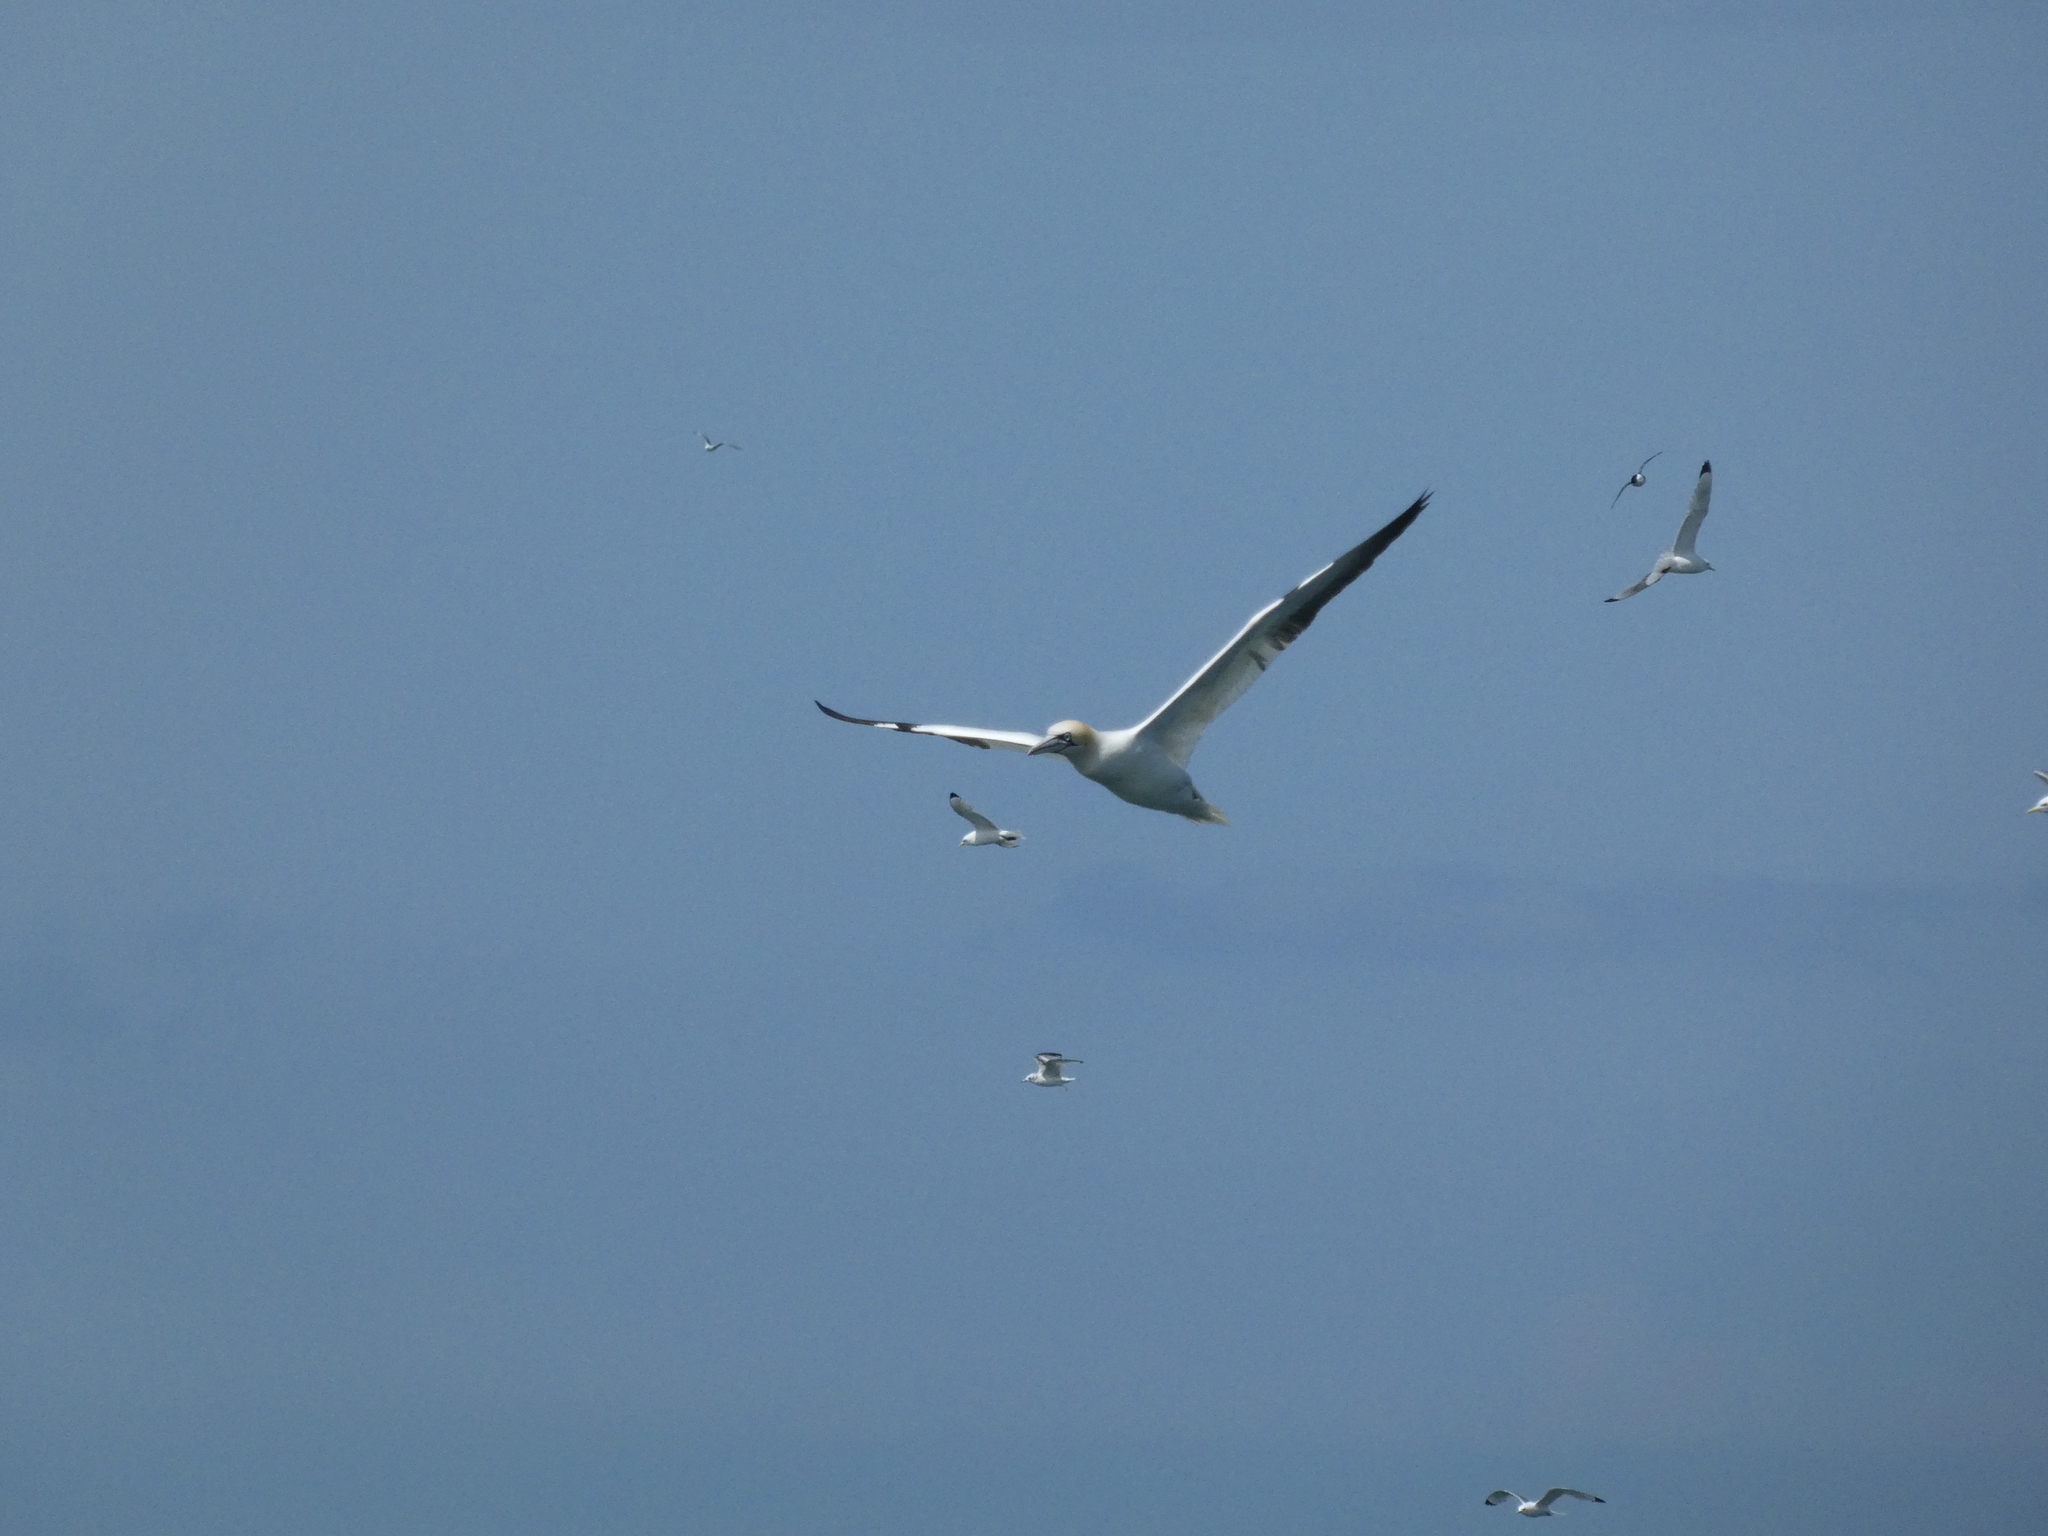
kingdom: Animalia
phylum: Chordata
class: Aves
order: Suliformes
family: Sulidae
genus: Morus
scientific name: Morus bassanus
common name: Northern gannet
